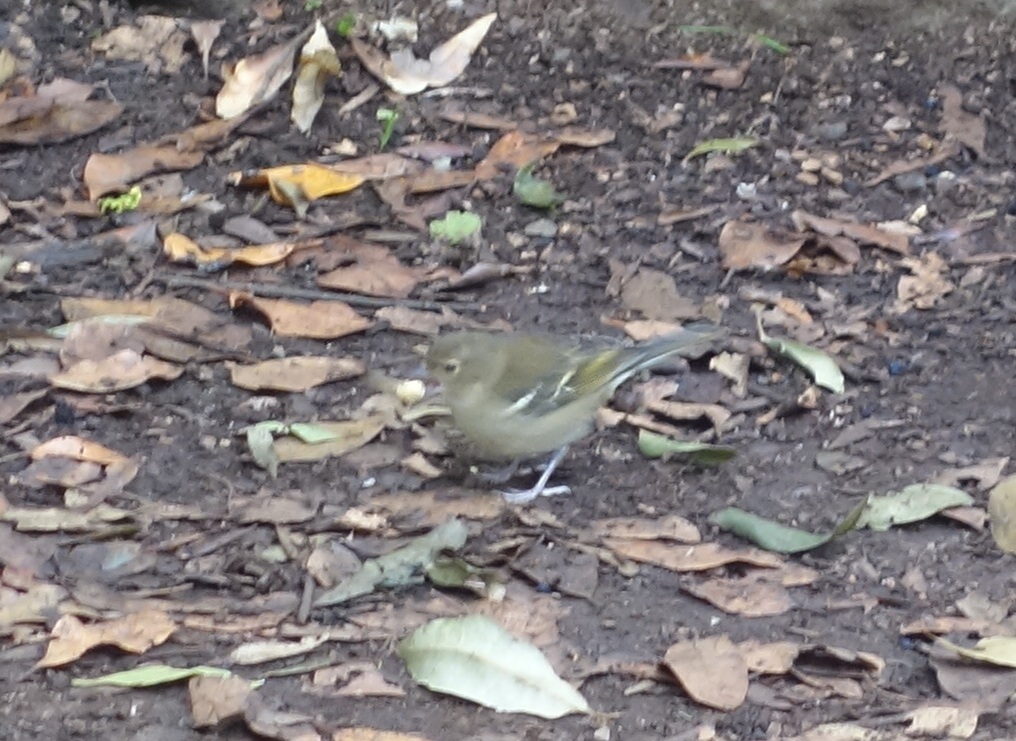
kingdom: Animalia
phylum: Chordata
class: Aves
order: Passeriformes
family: Fringillidae
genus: Fringilla
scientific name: Fringilla canariensis
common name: Canary islands chaffinch
